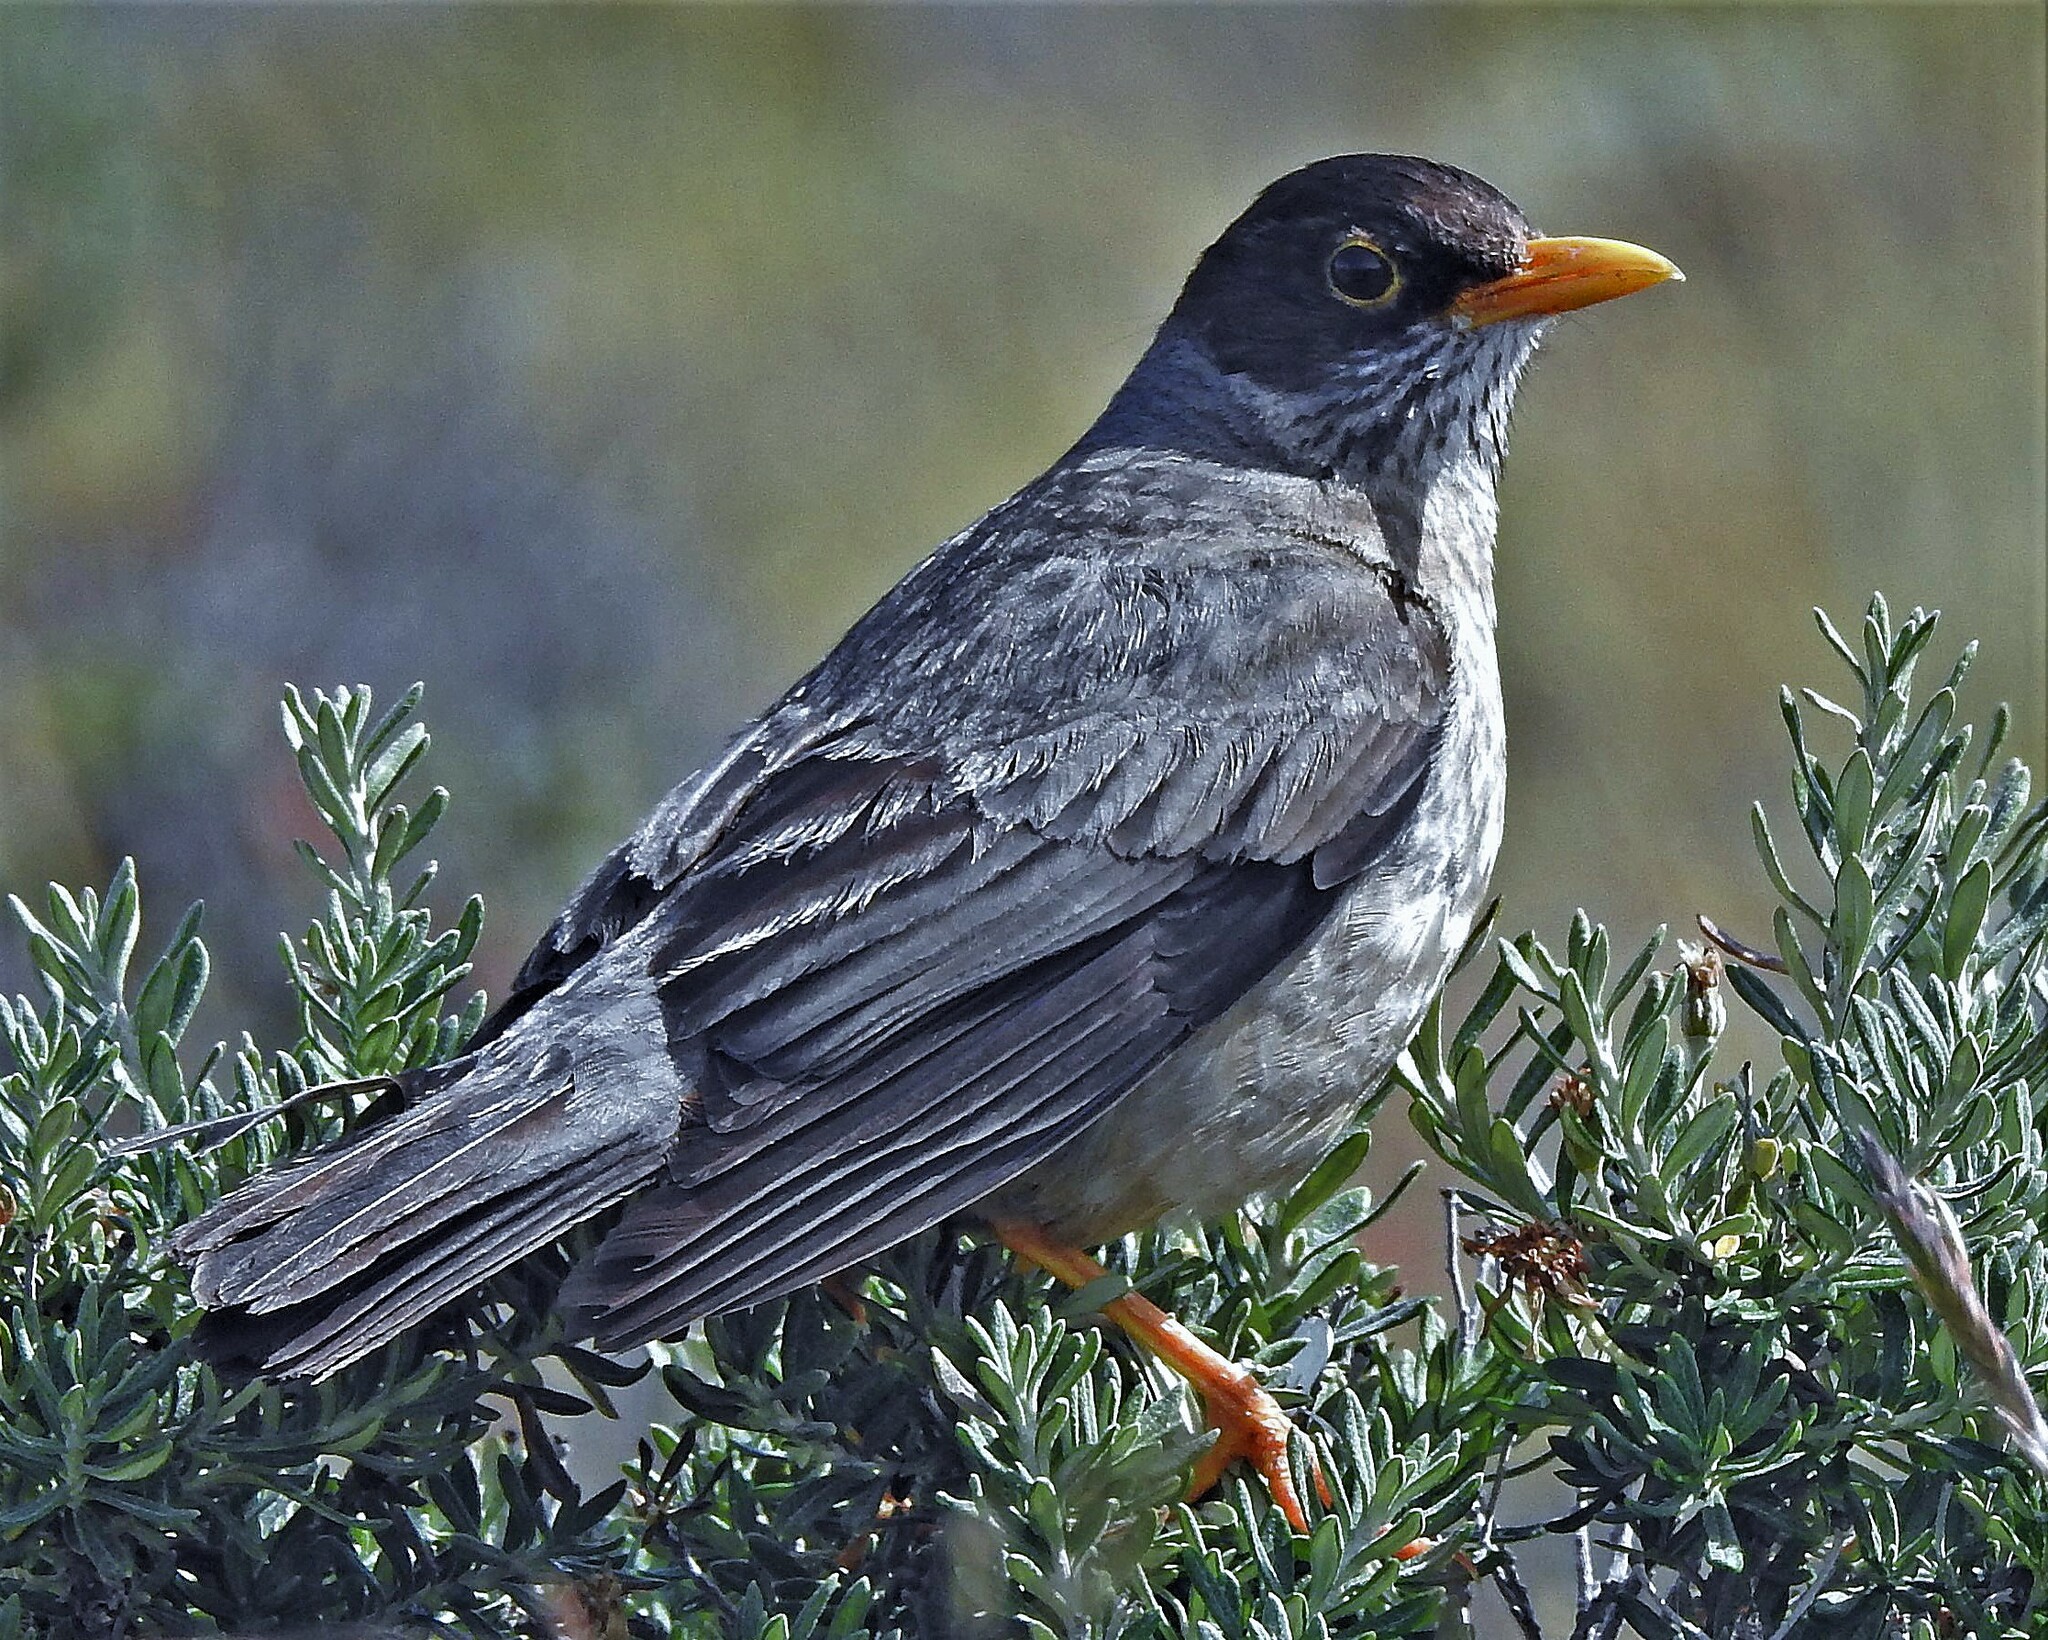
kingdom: Animalia
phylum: Chordata
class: Aves
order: Passeriformes
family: Turdidae
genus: Turdus
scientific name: Turdus falcklandii
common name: Austral thrush
